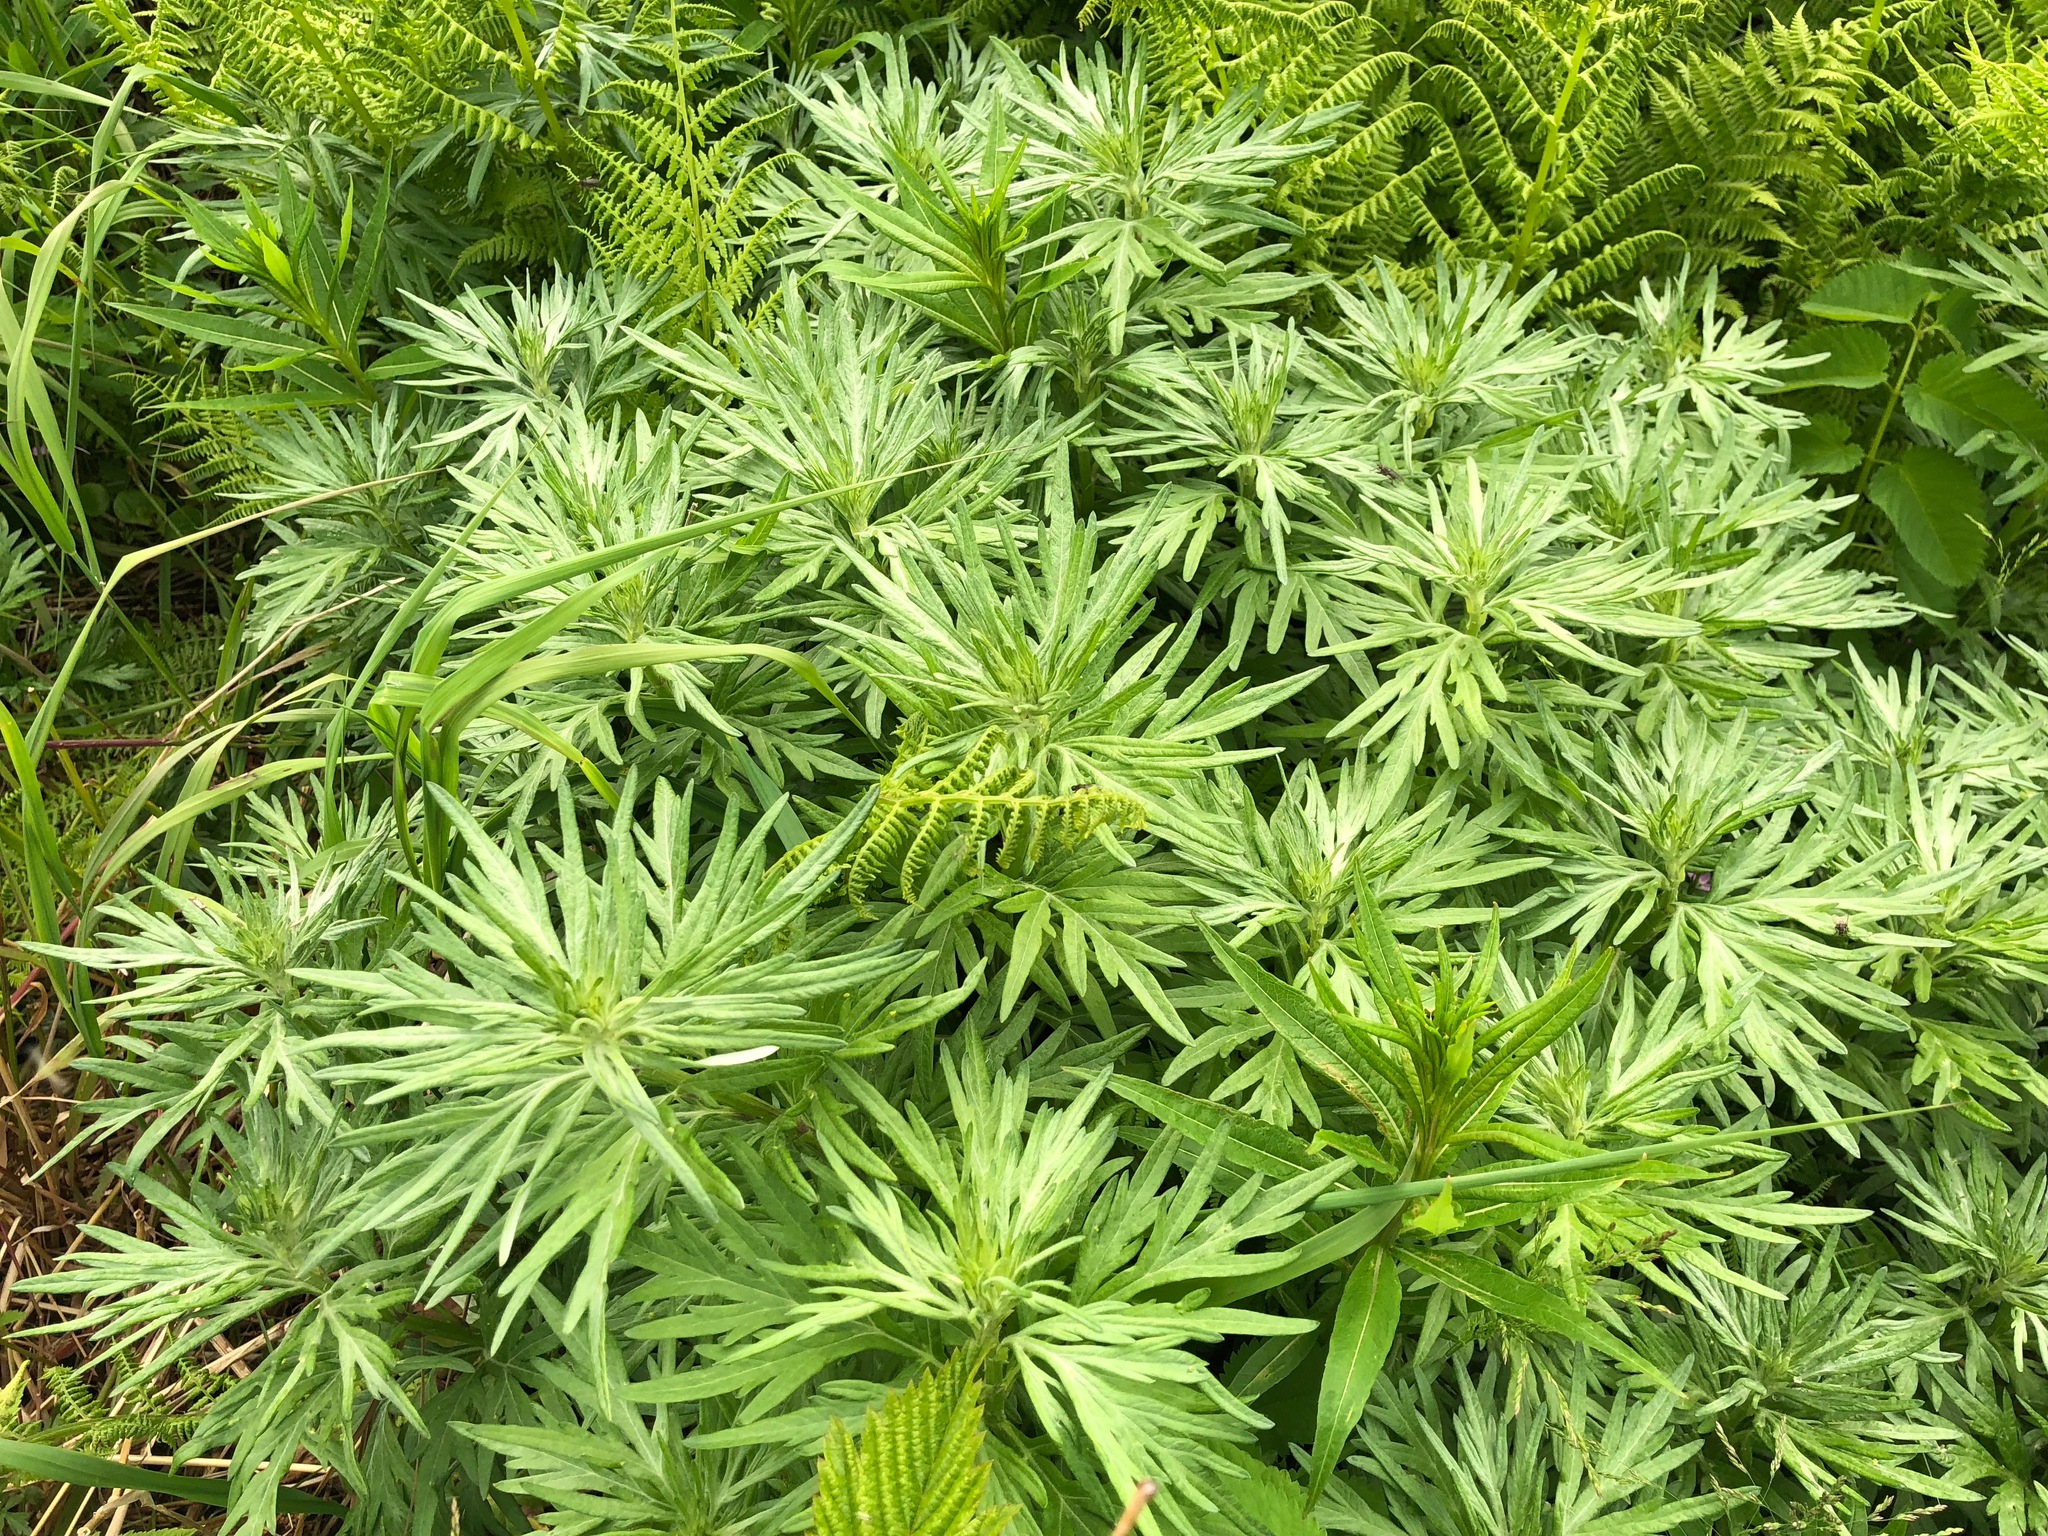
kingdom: Plantae
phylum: Tracheophyta
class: Magnoliopsida
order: Asterales
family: Asteraceae
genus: Artemisia
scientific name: Artemisia tilesii
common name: Aleutian mugwort
